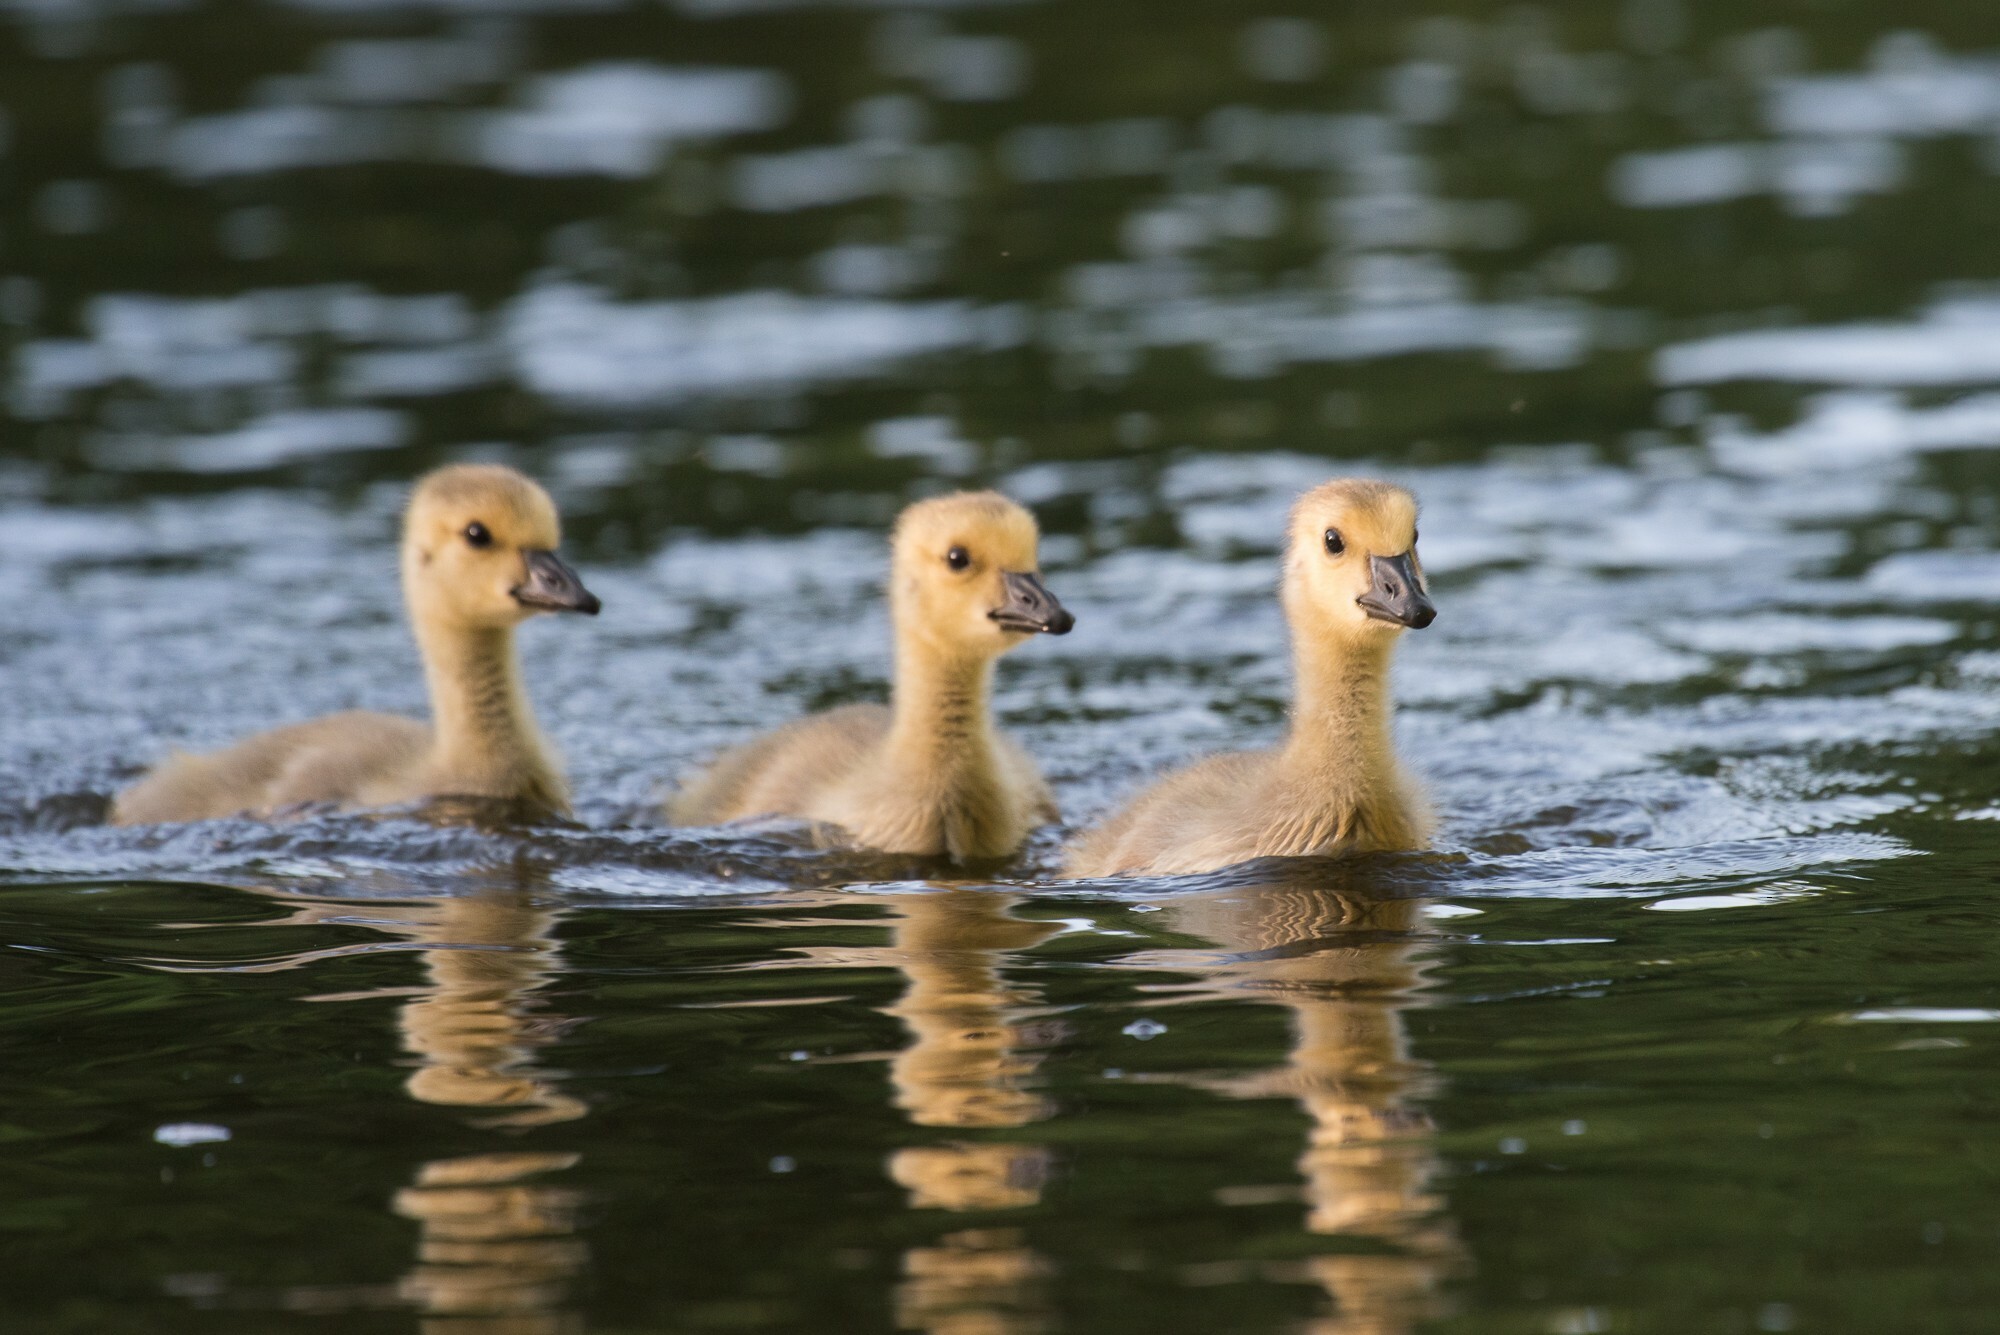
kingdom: Animalia
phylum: Chordata
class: Aves
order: Anseriformes
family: Anatidae
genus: Branta
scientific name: Branta canadensis
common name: Canada goose
